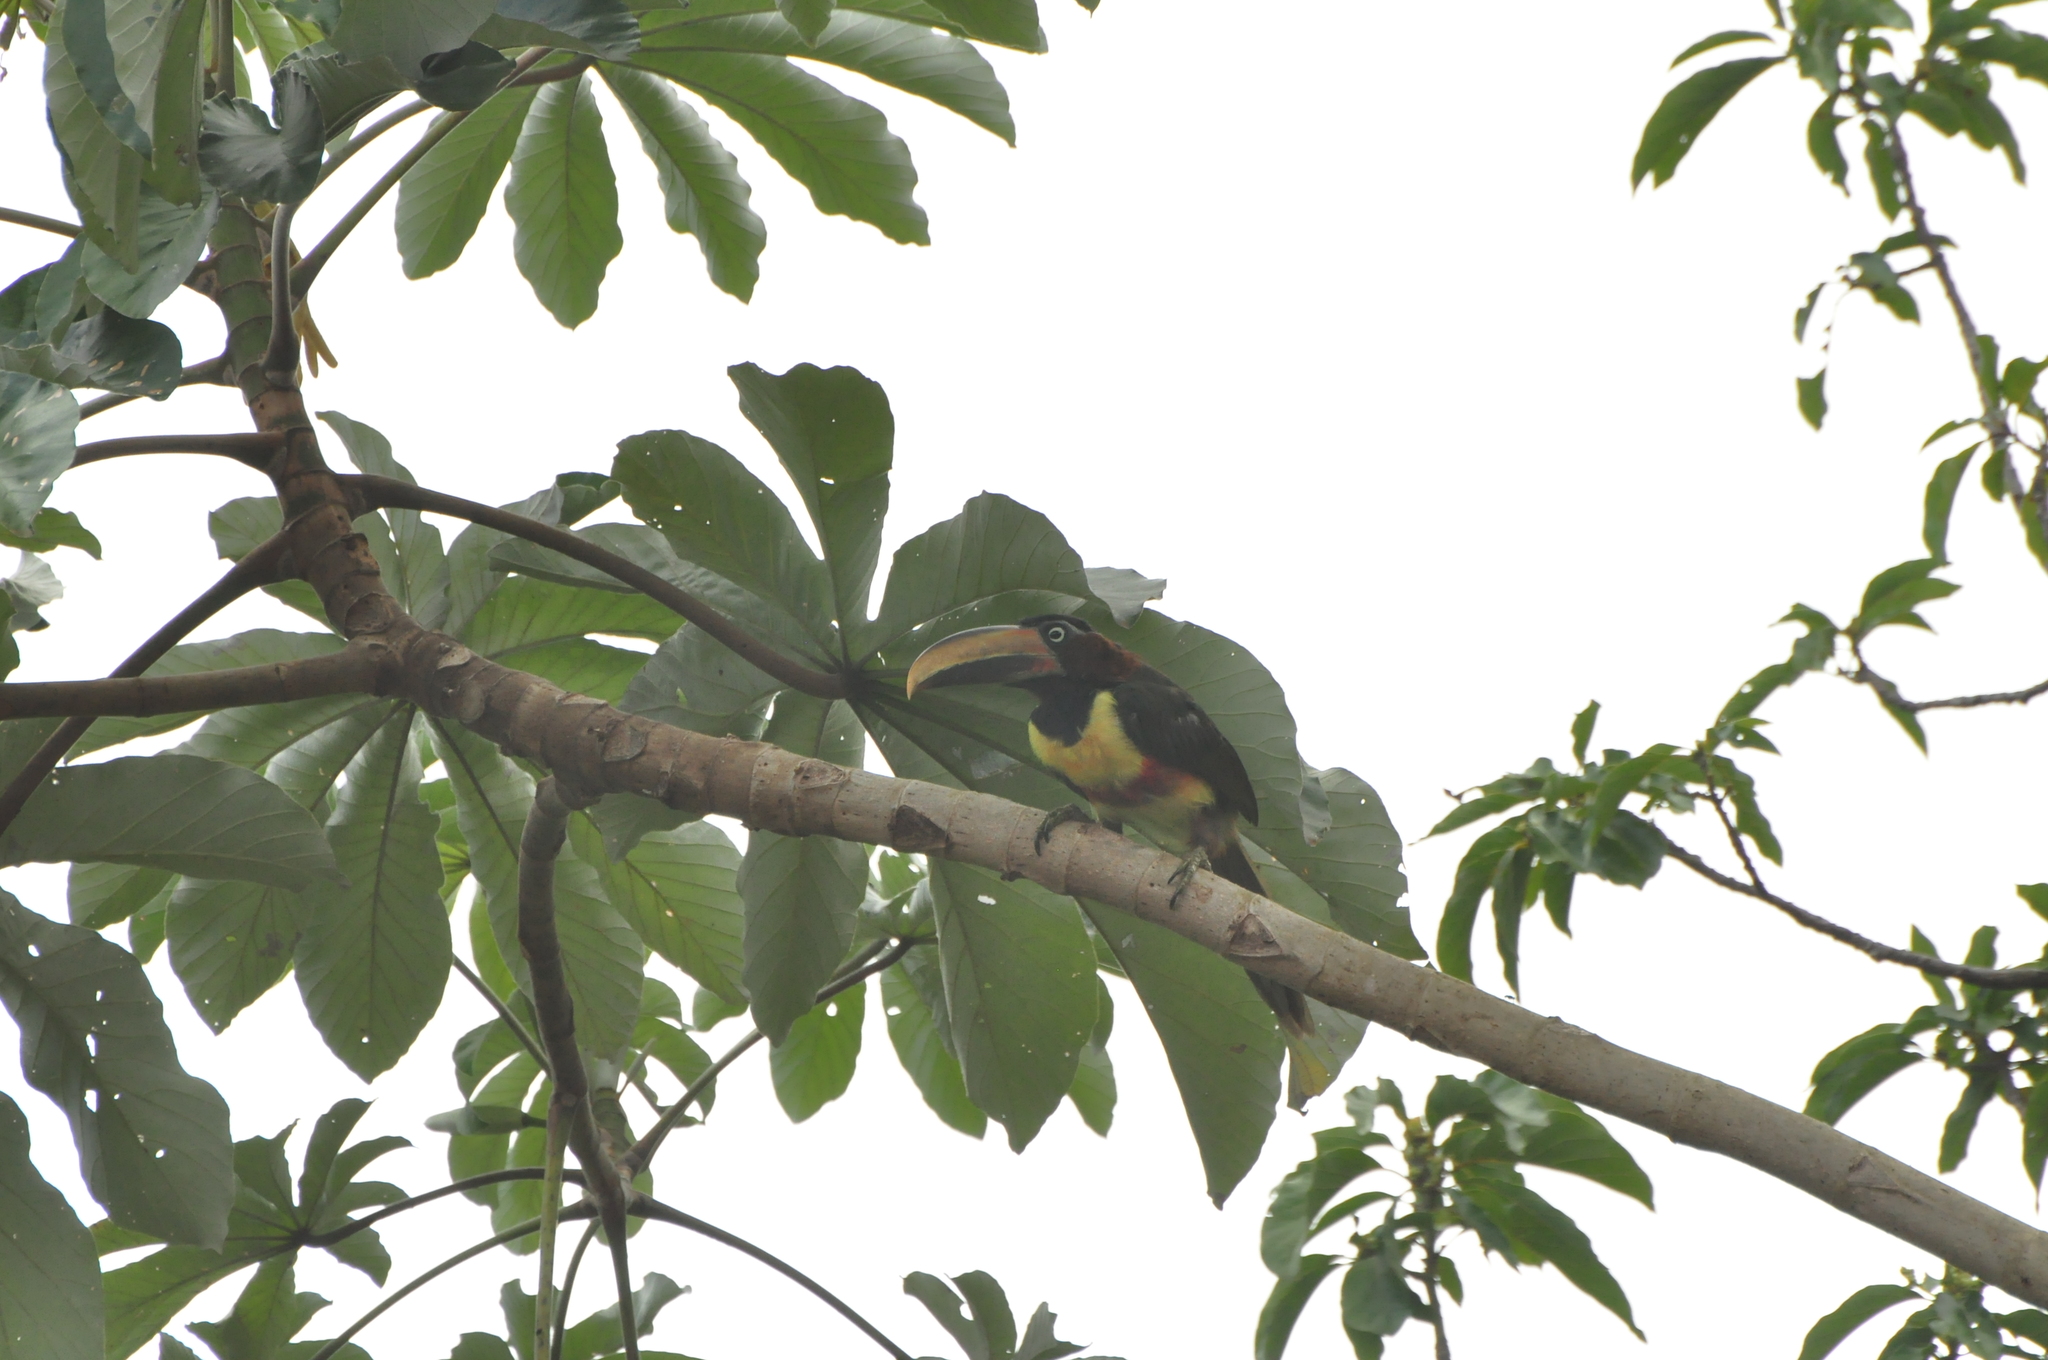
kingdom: Animalia
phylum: Chordata
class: Aves
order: Piciformes
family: Ramphastidae
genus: Pteroglossus
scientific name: Pteroglossus castanotis
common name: Chestnut-eared aracari
